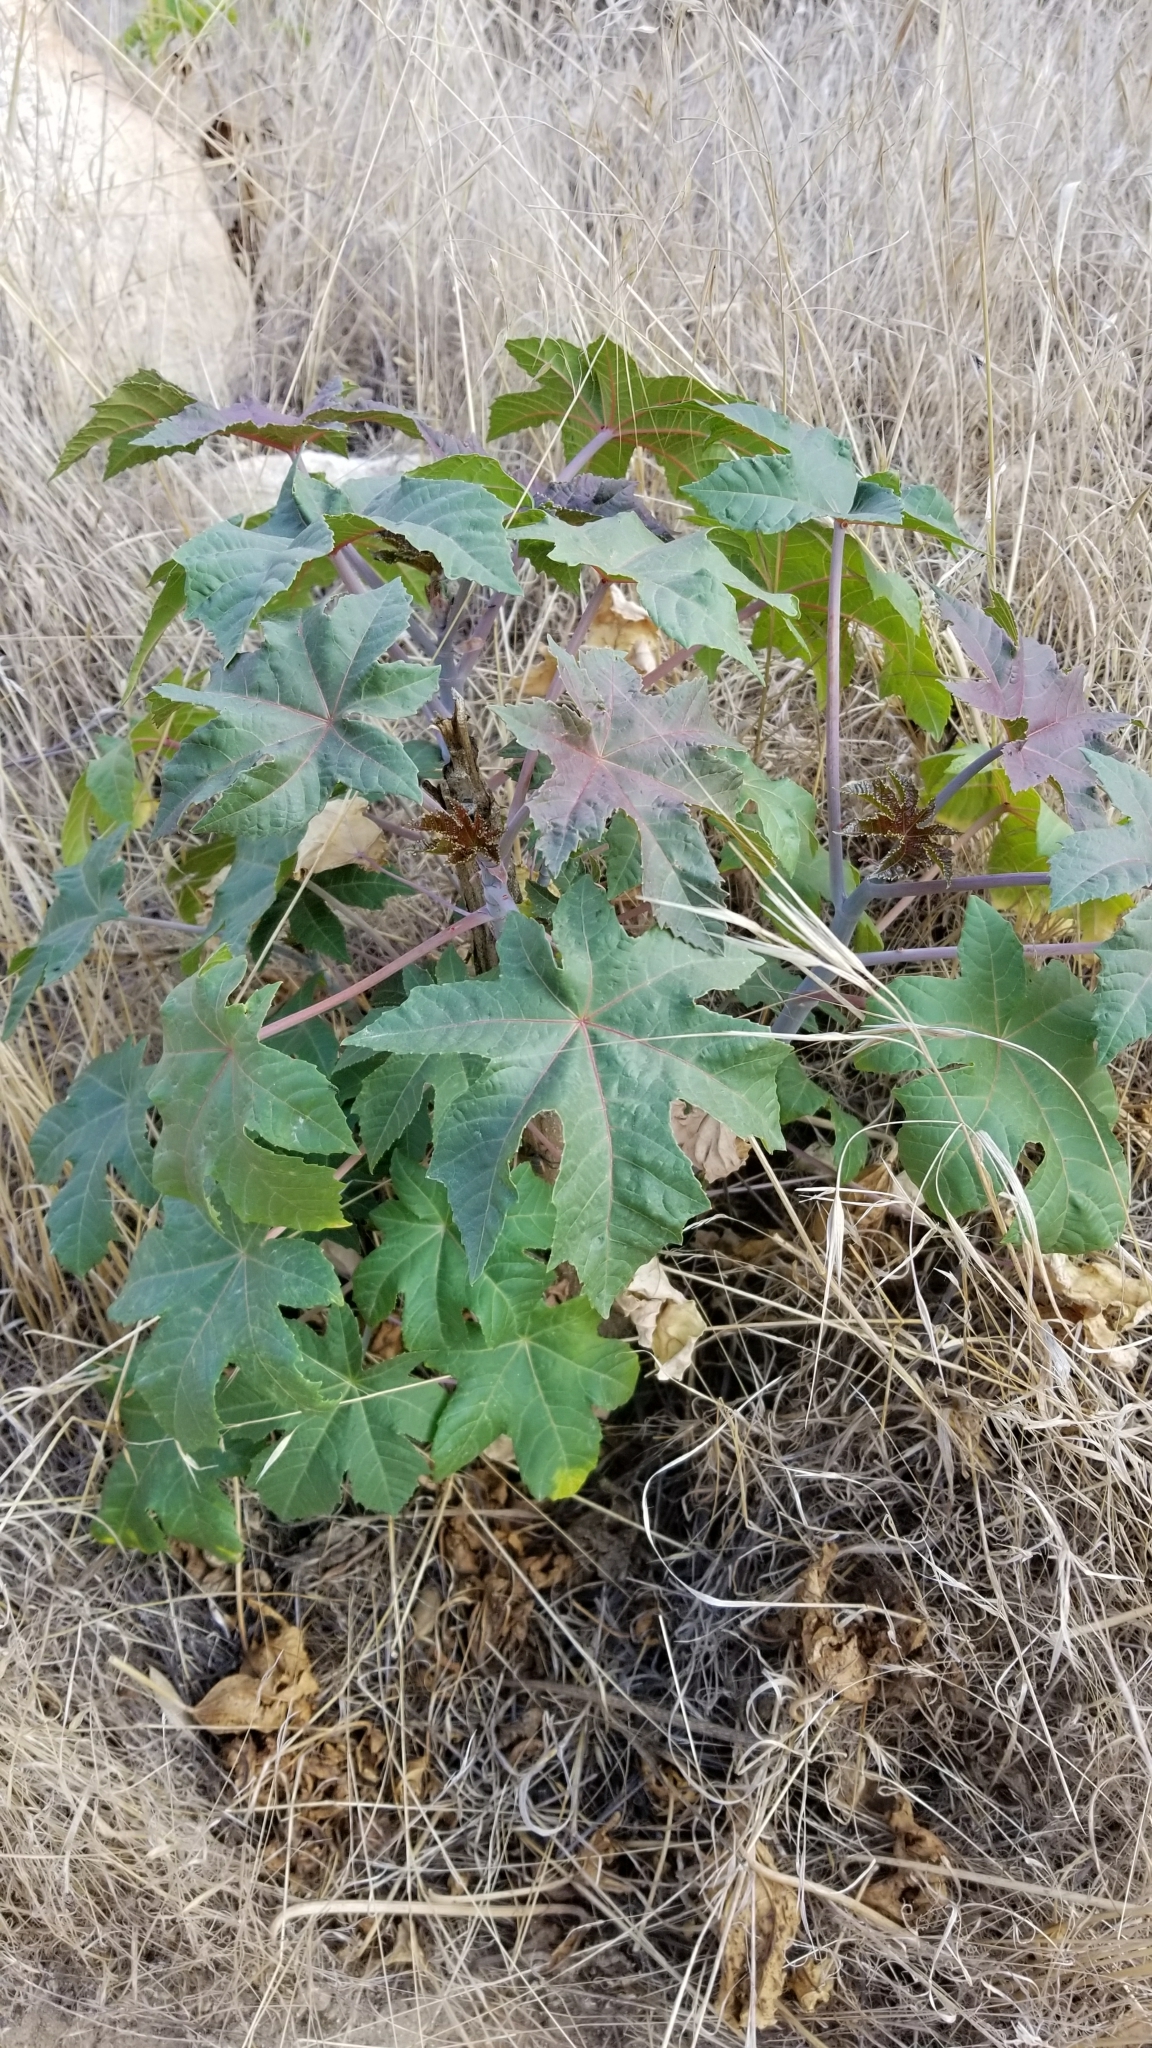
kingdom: Plantae
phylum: Tracheophyta
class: Magnoliopsida
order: Malpighiales
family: Euphorbiaceae
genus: Ricinus
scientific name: Ricinus communis
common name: Castor-oil-plant
